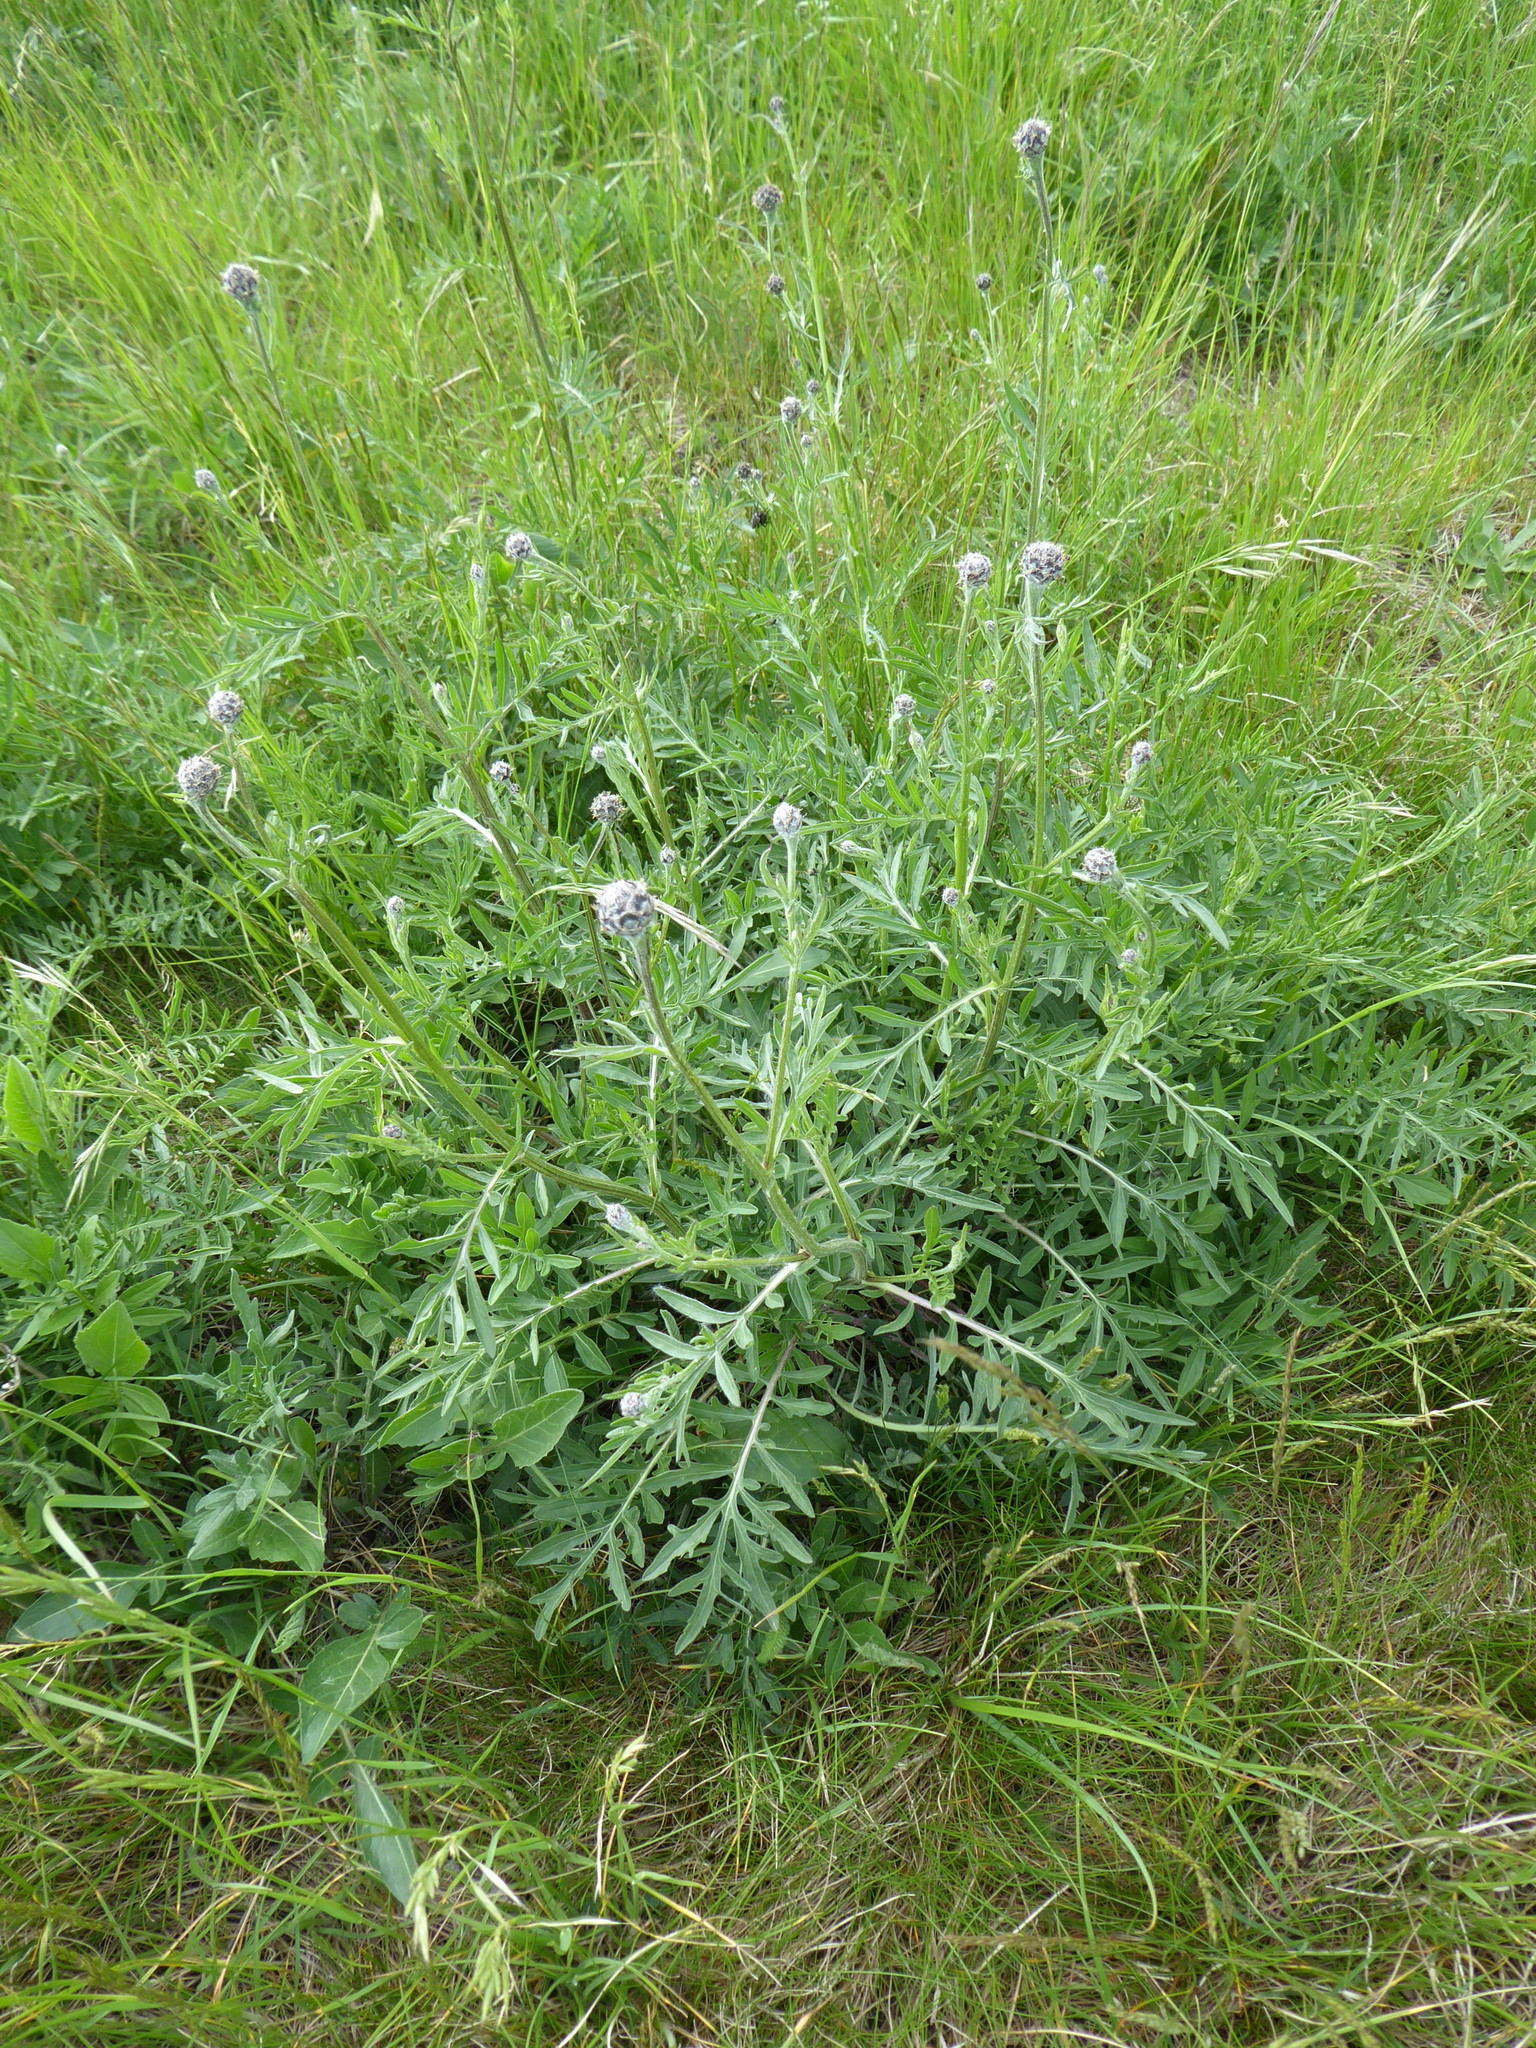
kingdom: Plantae
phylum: Tracheophyta
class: Magnoliopsida
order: Asterales
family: Asteraceae
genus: Centaurea
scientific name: Centaurea scabiosa
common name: Greater knapweed
